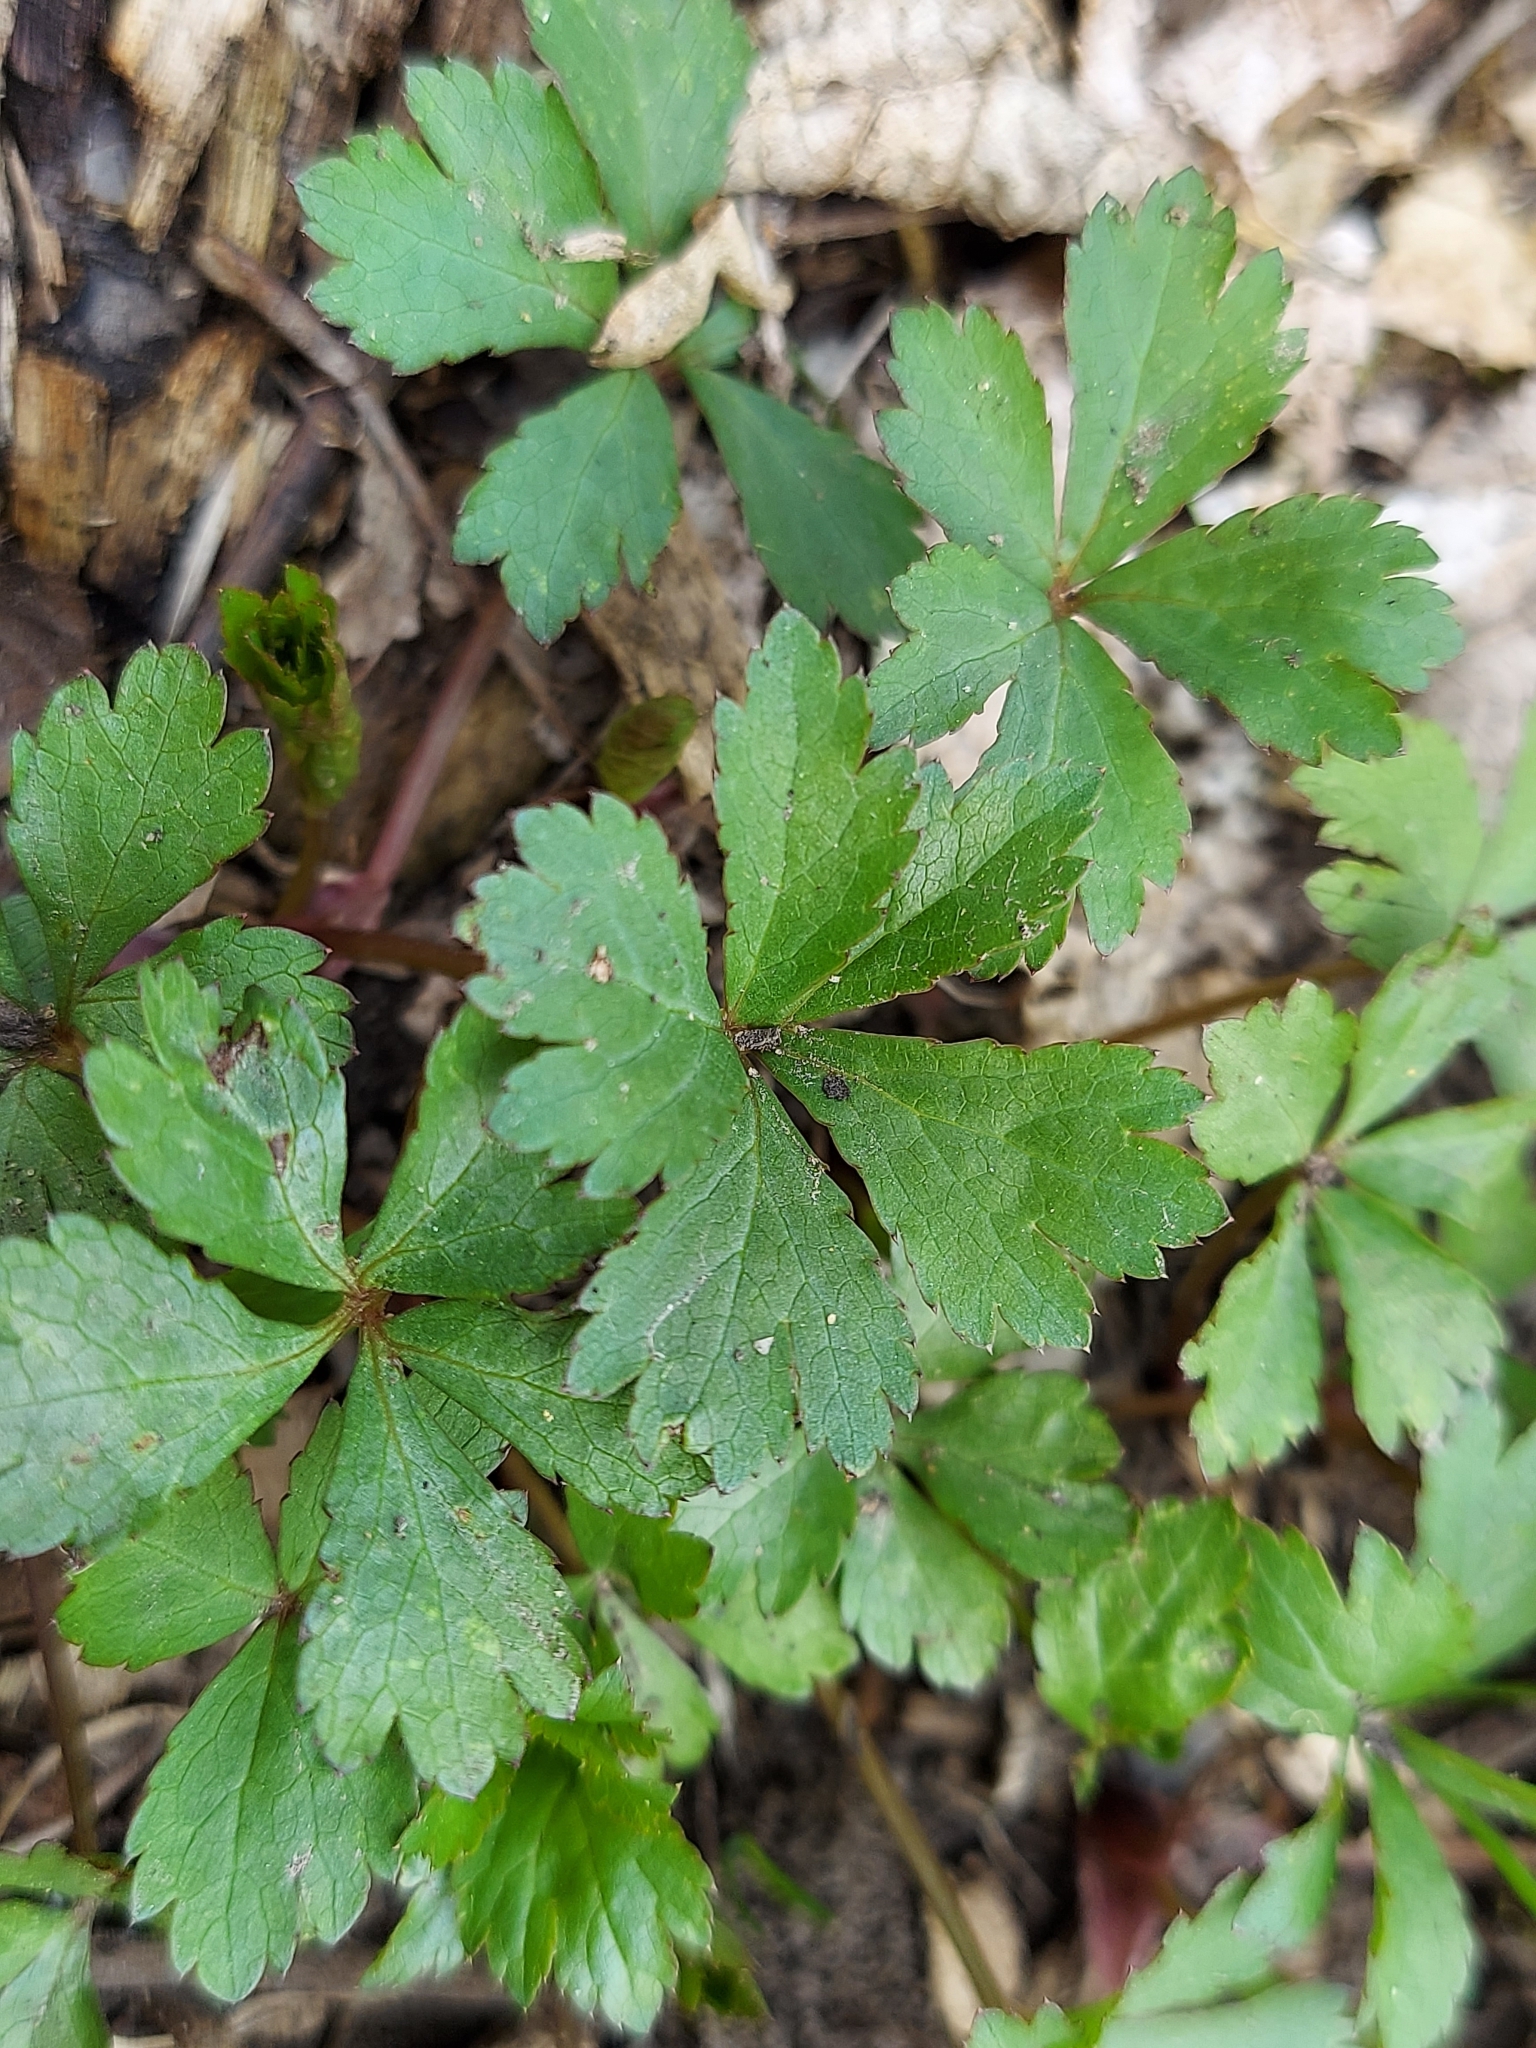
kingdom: Plantae
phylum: Tracheophyta
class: Magnoliopsida
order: Apiales
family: Apiaceae
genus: Sanicula
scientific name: Sanicula canadensis
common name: Canada sanicle
